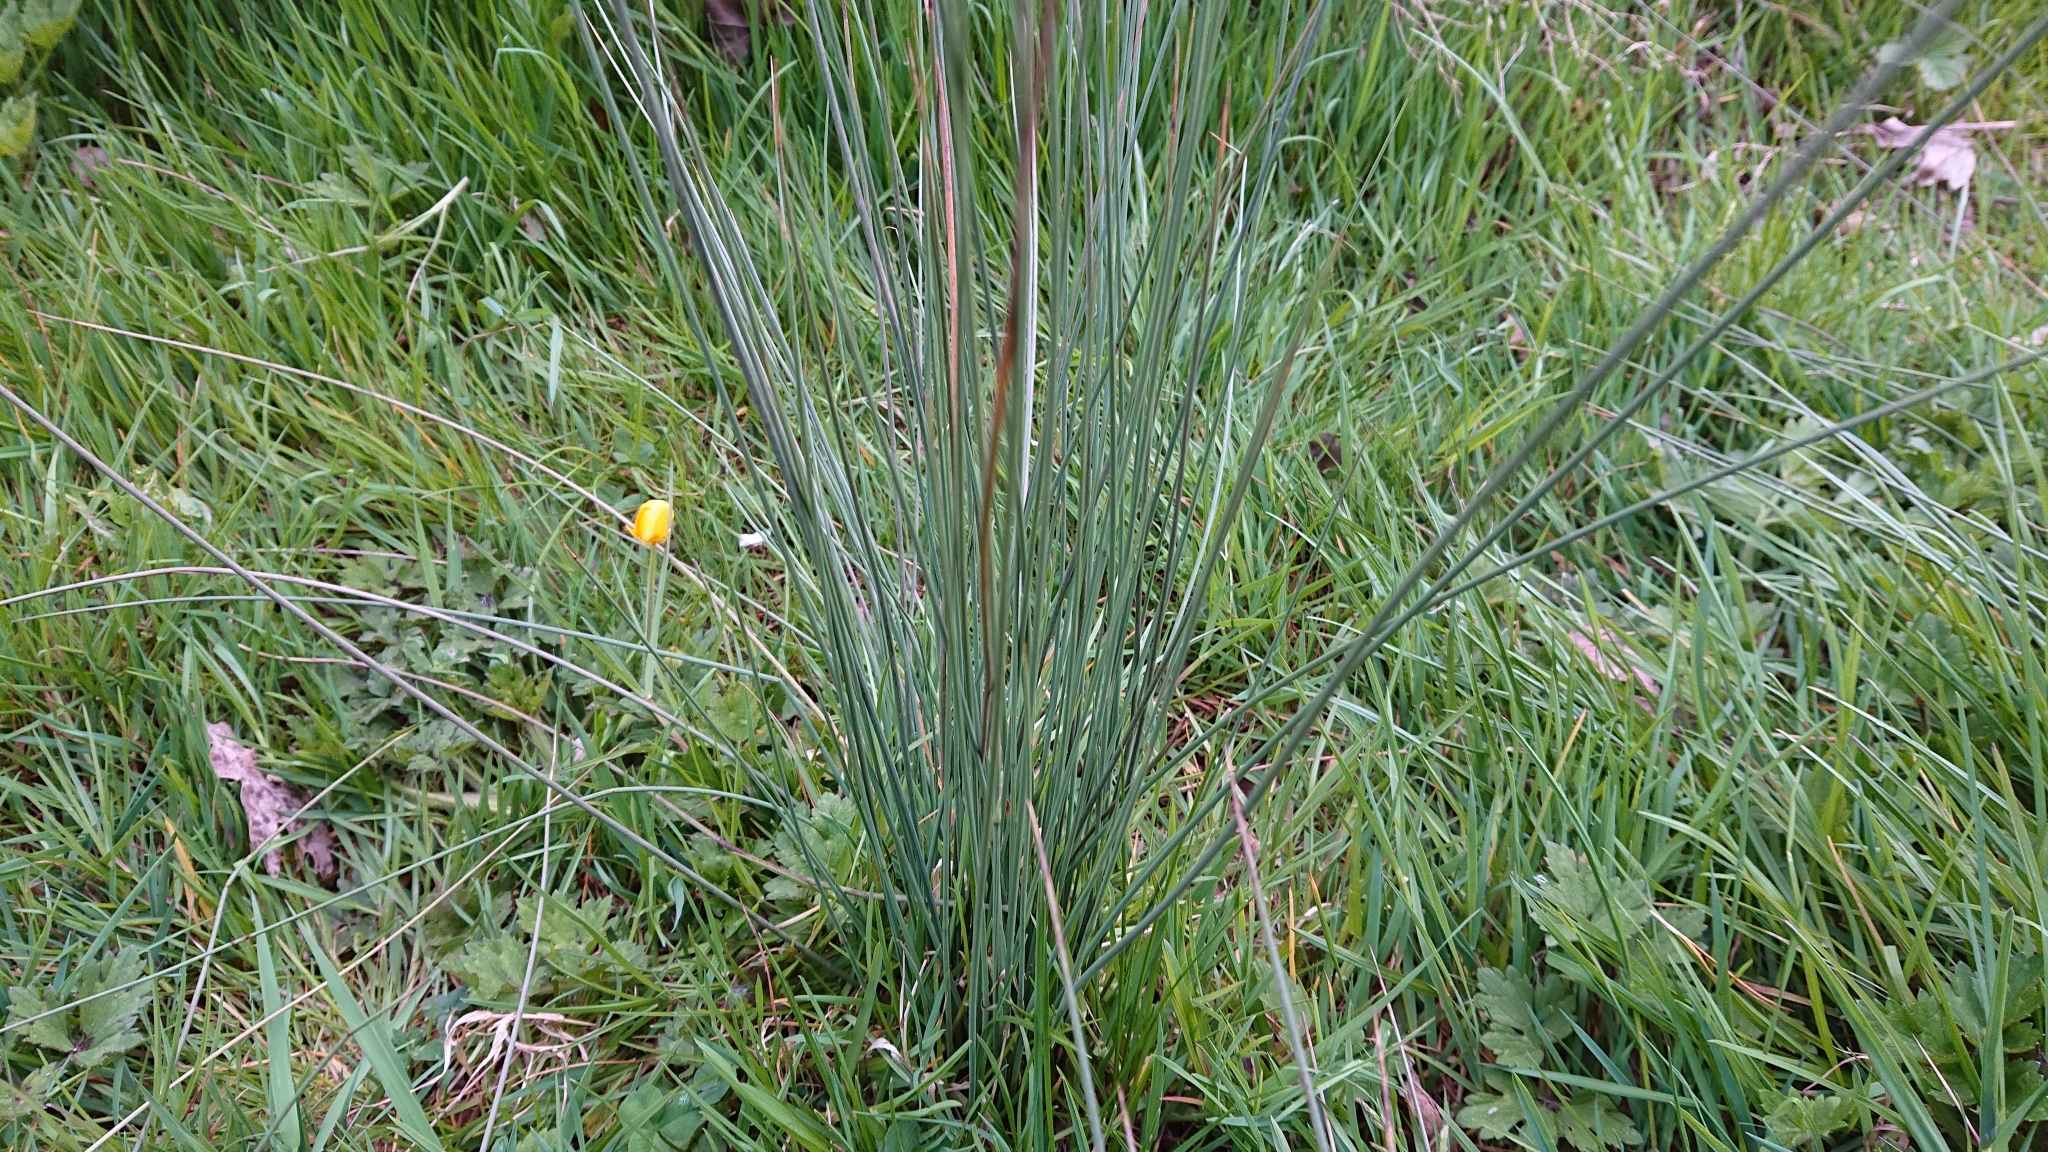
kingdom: Plantae
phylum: Tracheophyta
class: Liliopsida
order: Poales
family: Juncaceae
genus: Juncus
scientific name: Juncus inflexus
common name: Hard rush
